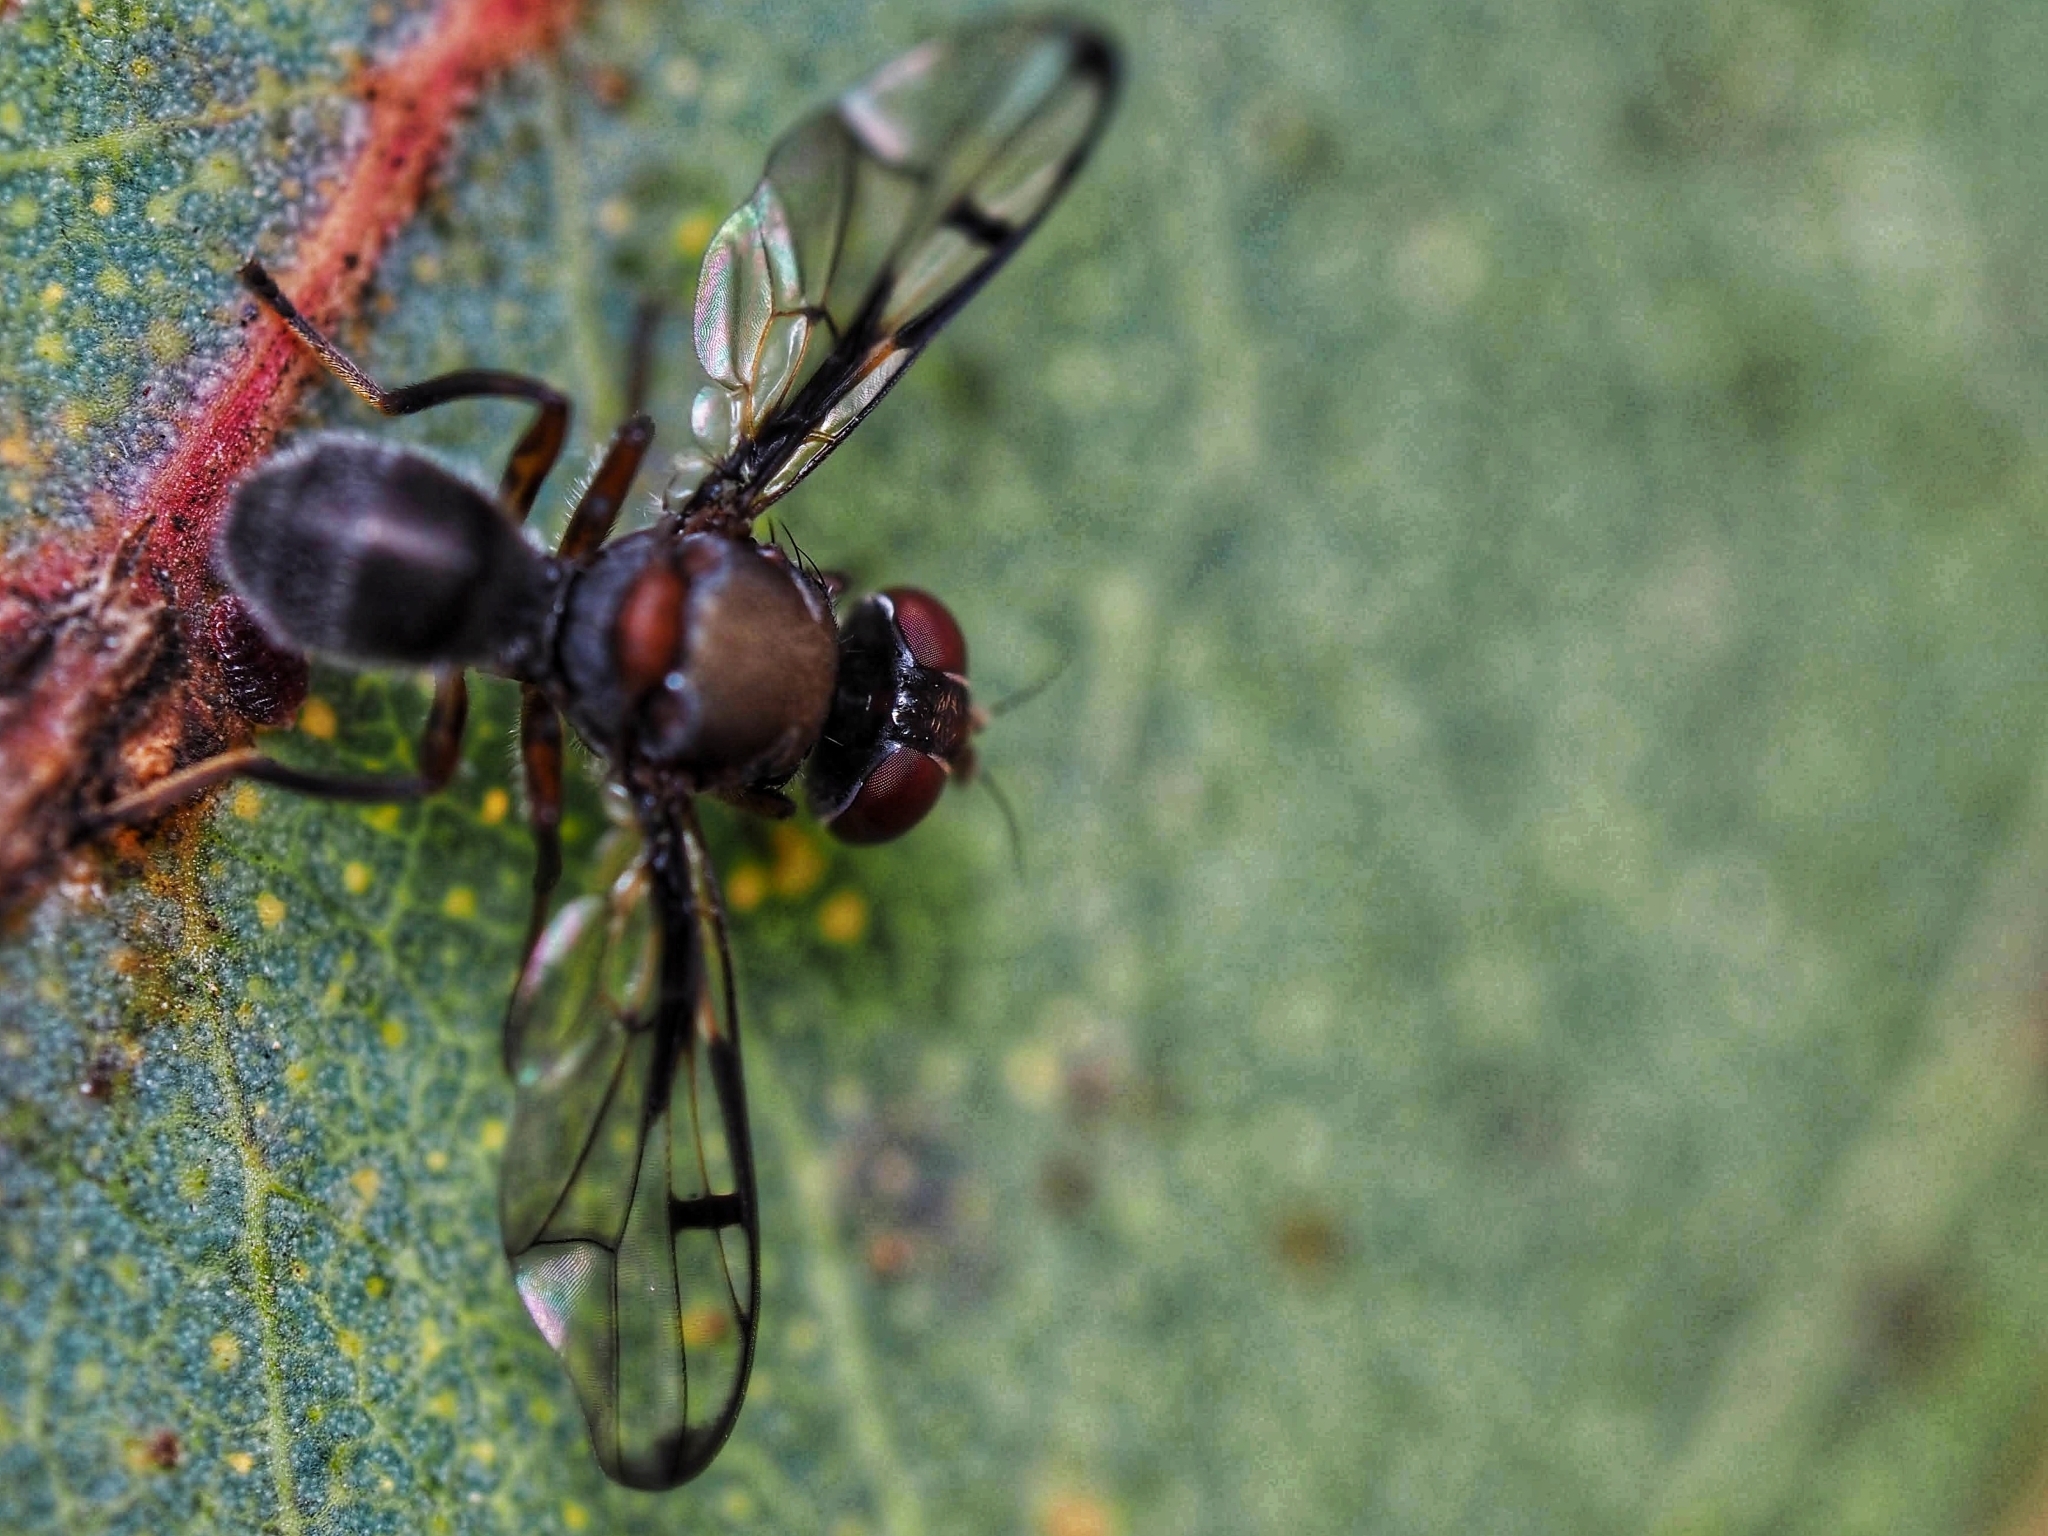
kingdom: Animalia
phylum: Arthropoda
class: Insecta
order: Diptera
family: Platystomatidae
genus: Pogonortalis
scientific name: Pogonortalis doclea
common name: Boatman fly
